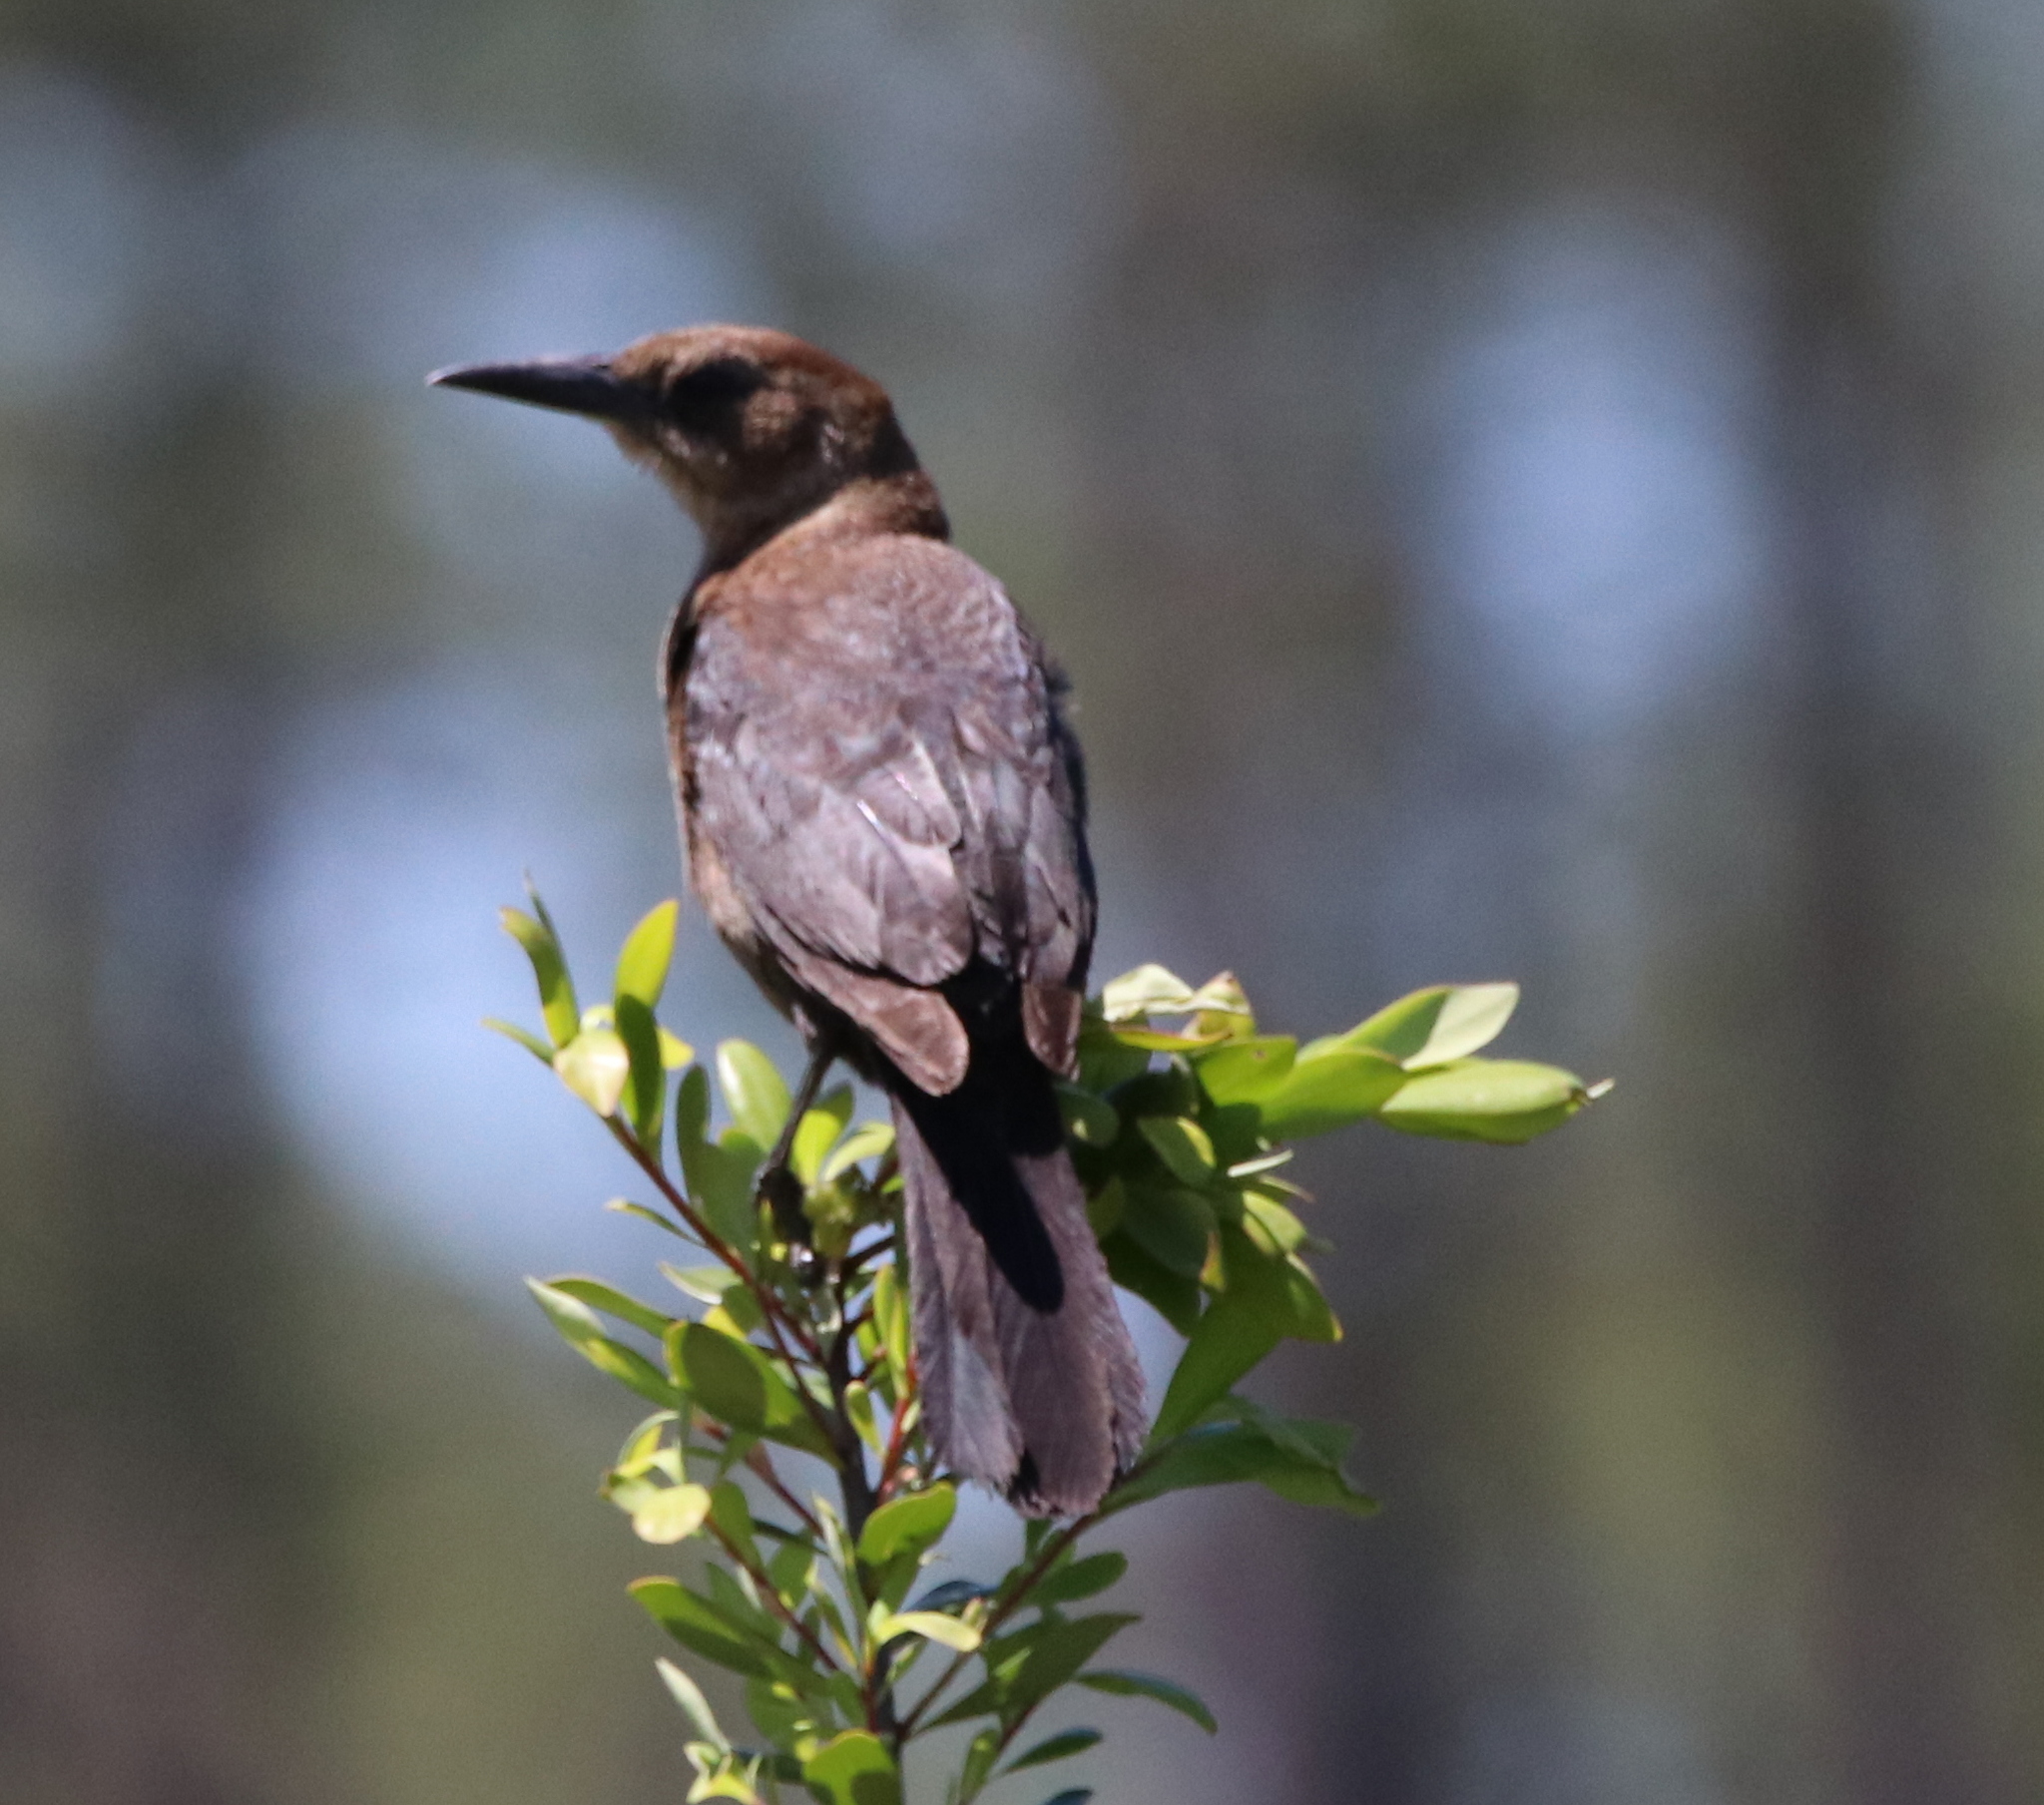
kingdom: Animalia
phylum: Chordata
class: Aves
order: Passeriformes
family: Icteridae
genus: Quiscalus
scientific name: Quiscalus major
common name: Boat-tailed grackle
